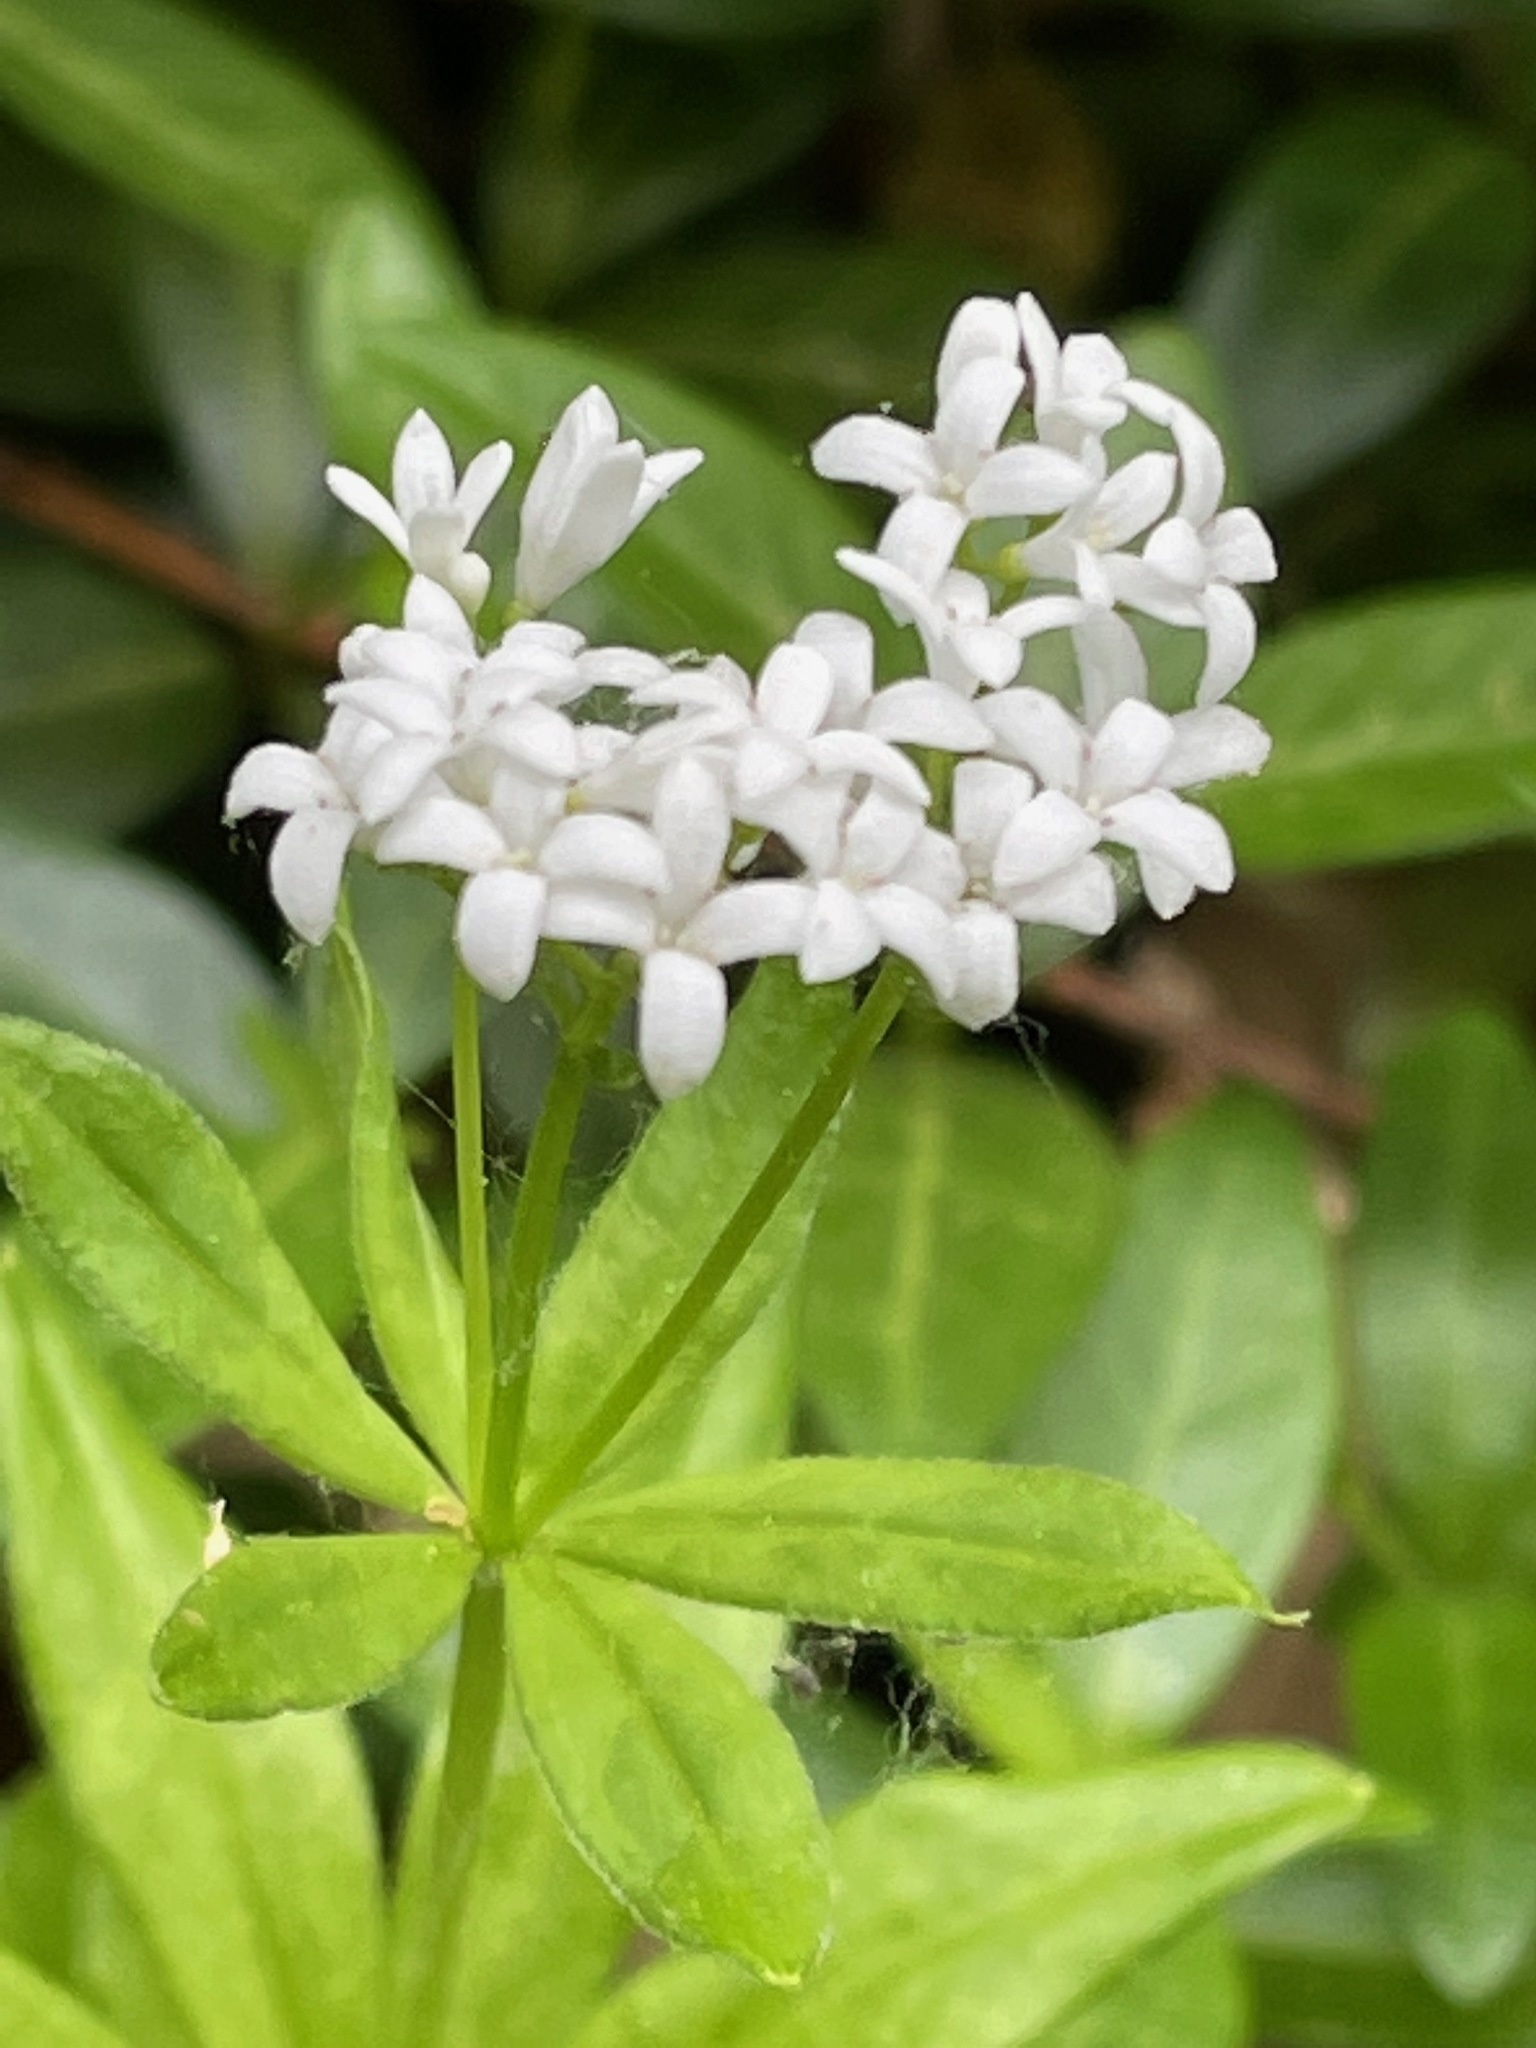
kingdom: Plantae
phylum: Tracheophyta
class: Magnoliopsida
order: Gentianales
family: Rubiaceae
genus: Galium
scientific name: Galium odoratum
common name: Sweet woodruff
